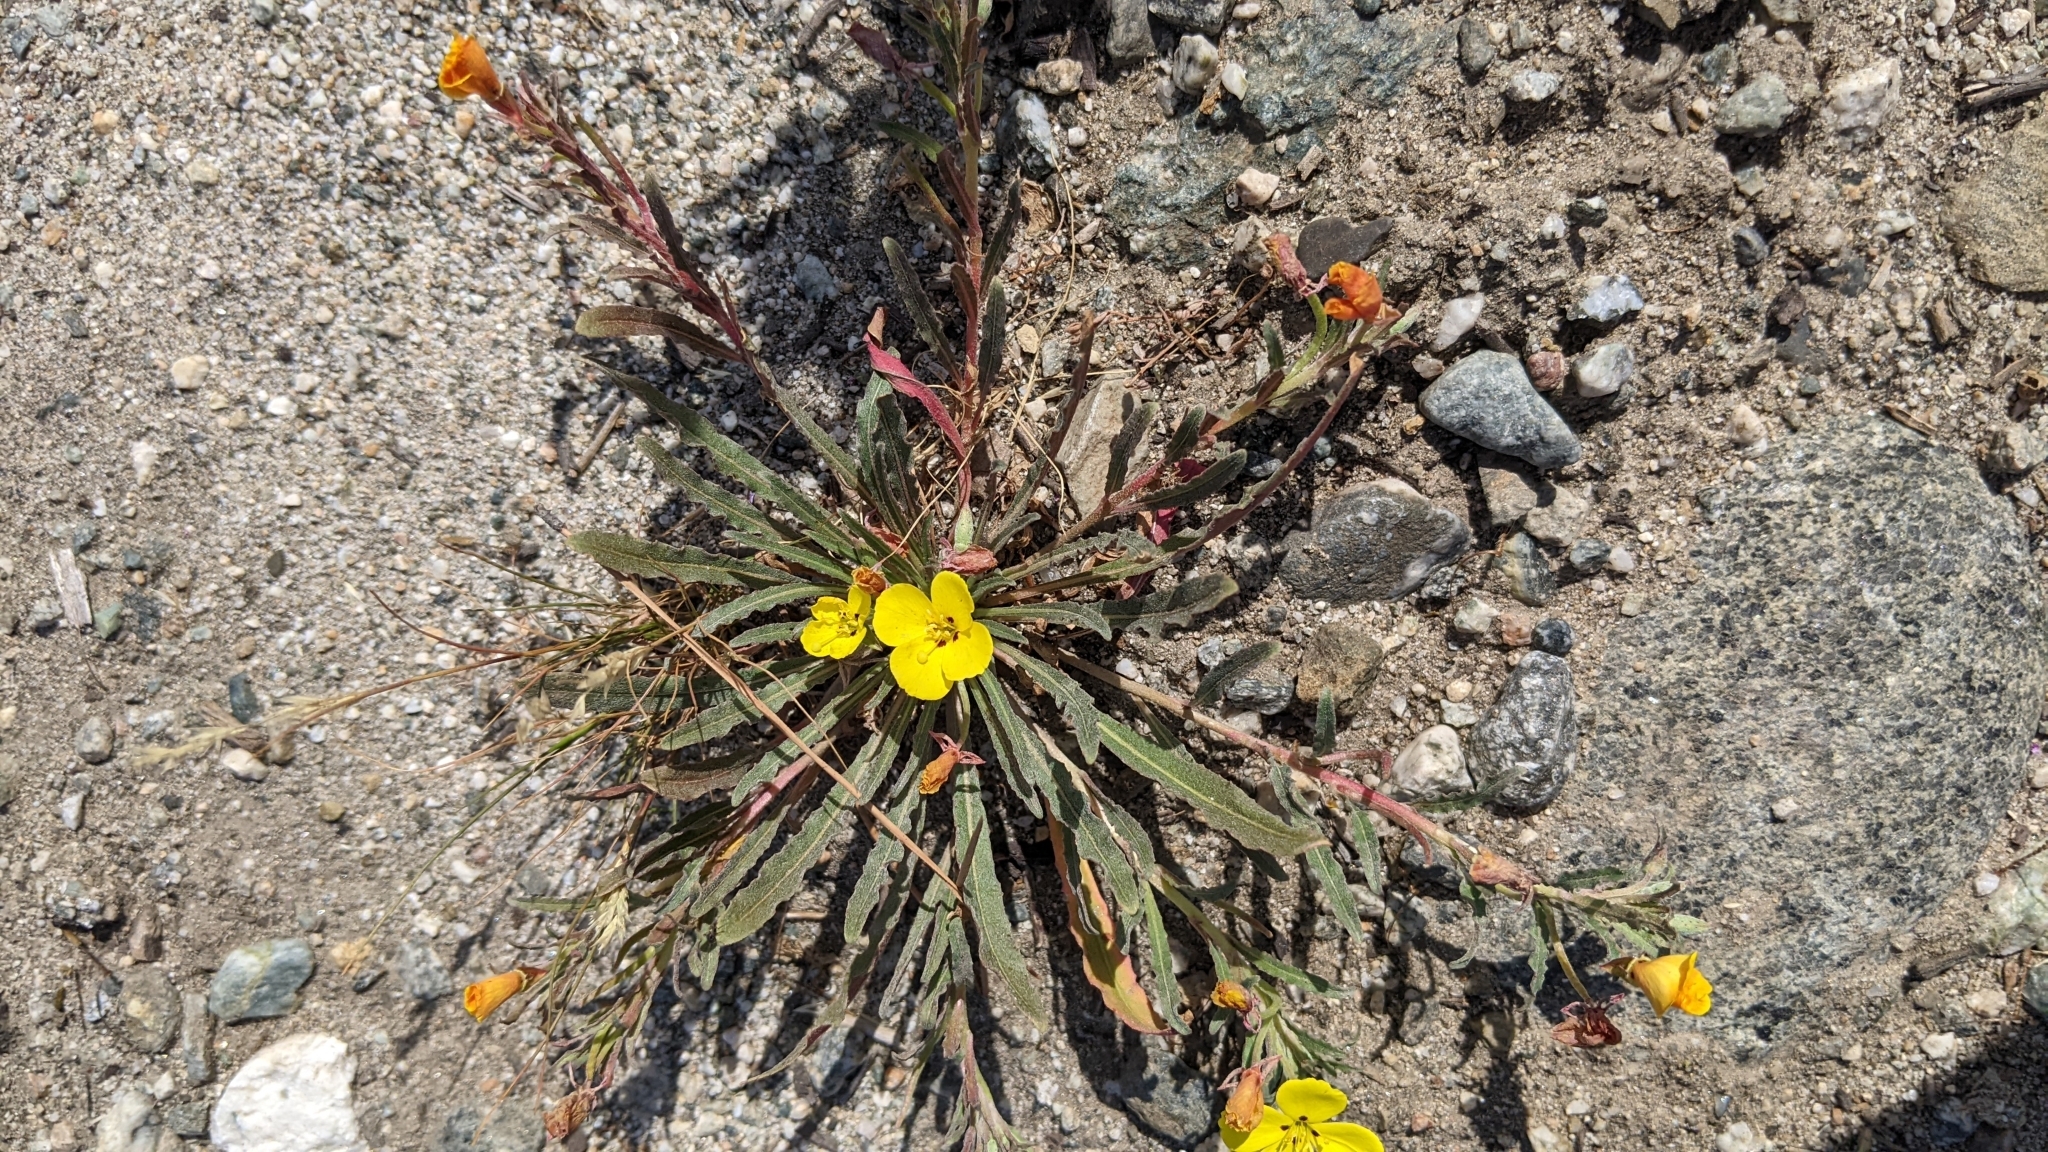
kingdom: Plantae
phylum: Tracheophyta
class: Magnoliopsida
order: Myrtales
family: Onagraceae
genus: Camissoniopsis
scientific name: Camissoniopsis bistorta
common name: Southern suncup
